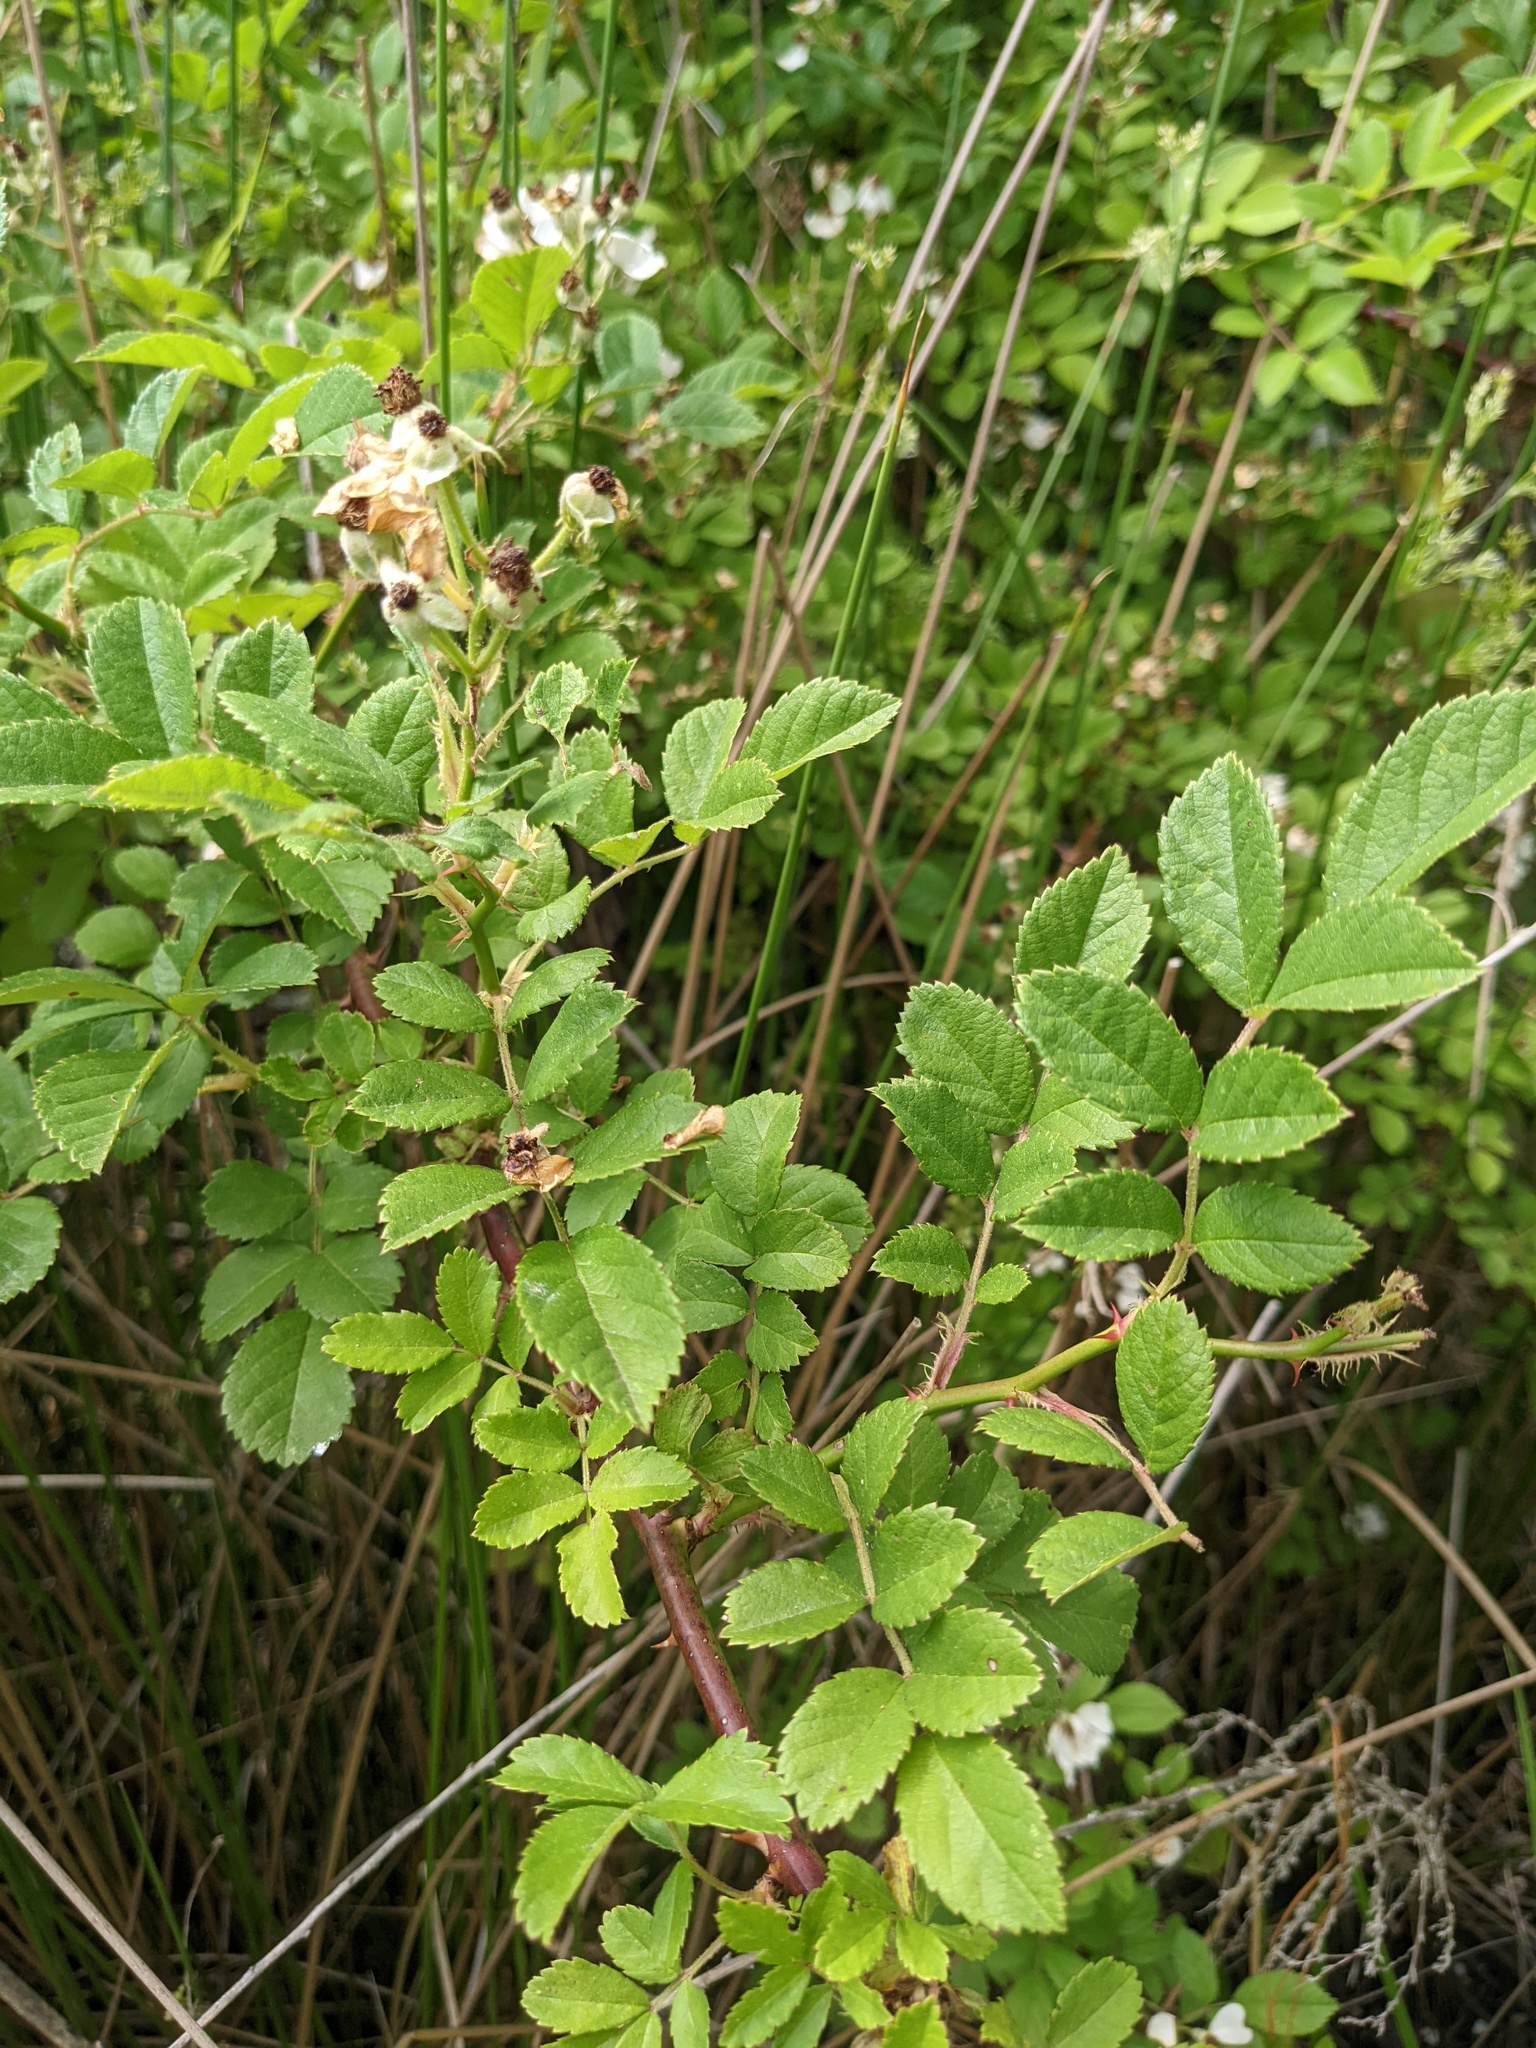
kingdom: Plantae
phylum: Tracheophyta
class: Magnoliopsida
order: Rosales
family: Rosaceae
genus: Rosa
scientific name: Rosa multiflora
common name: Multiflora rose
